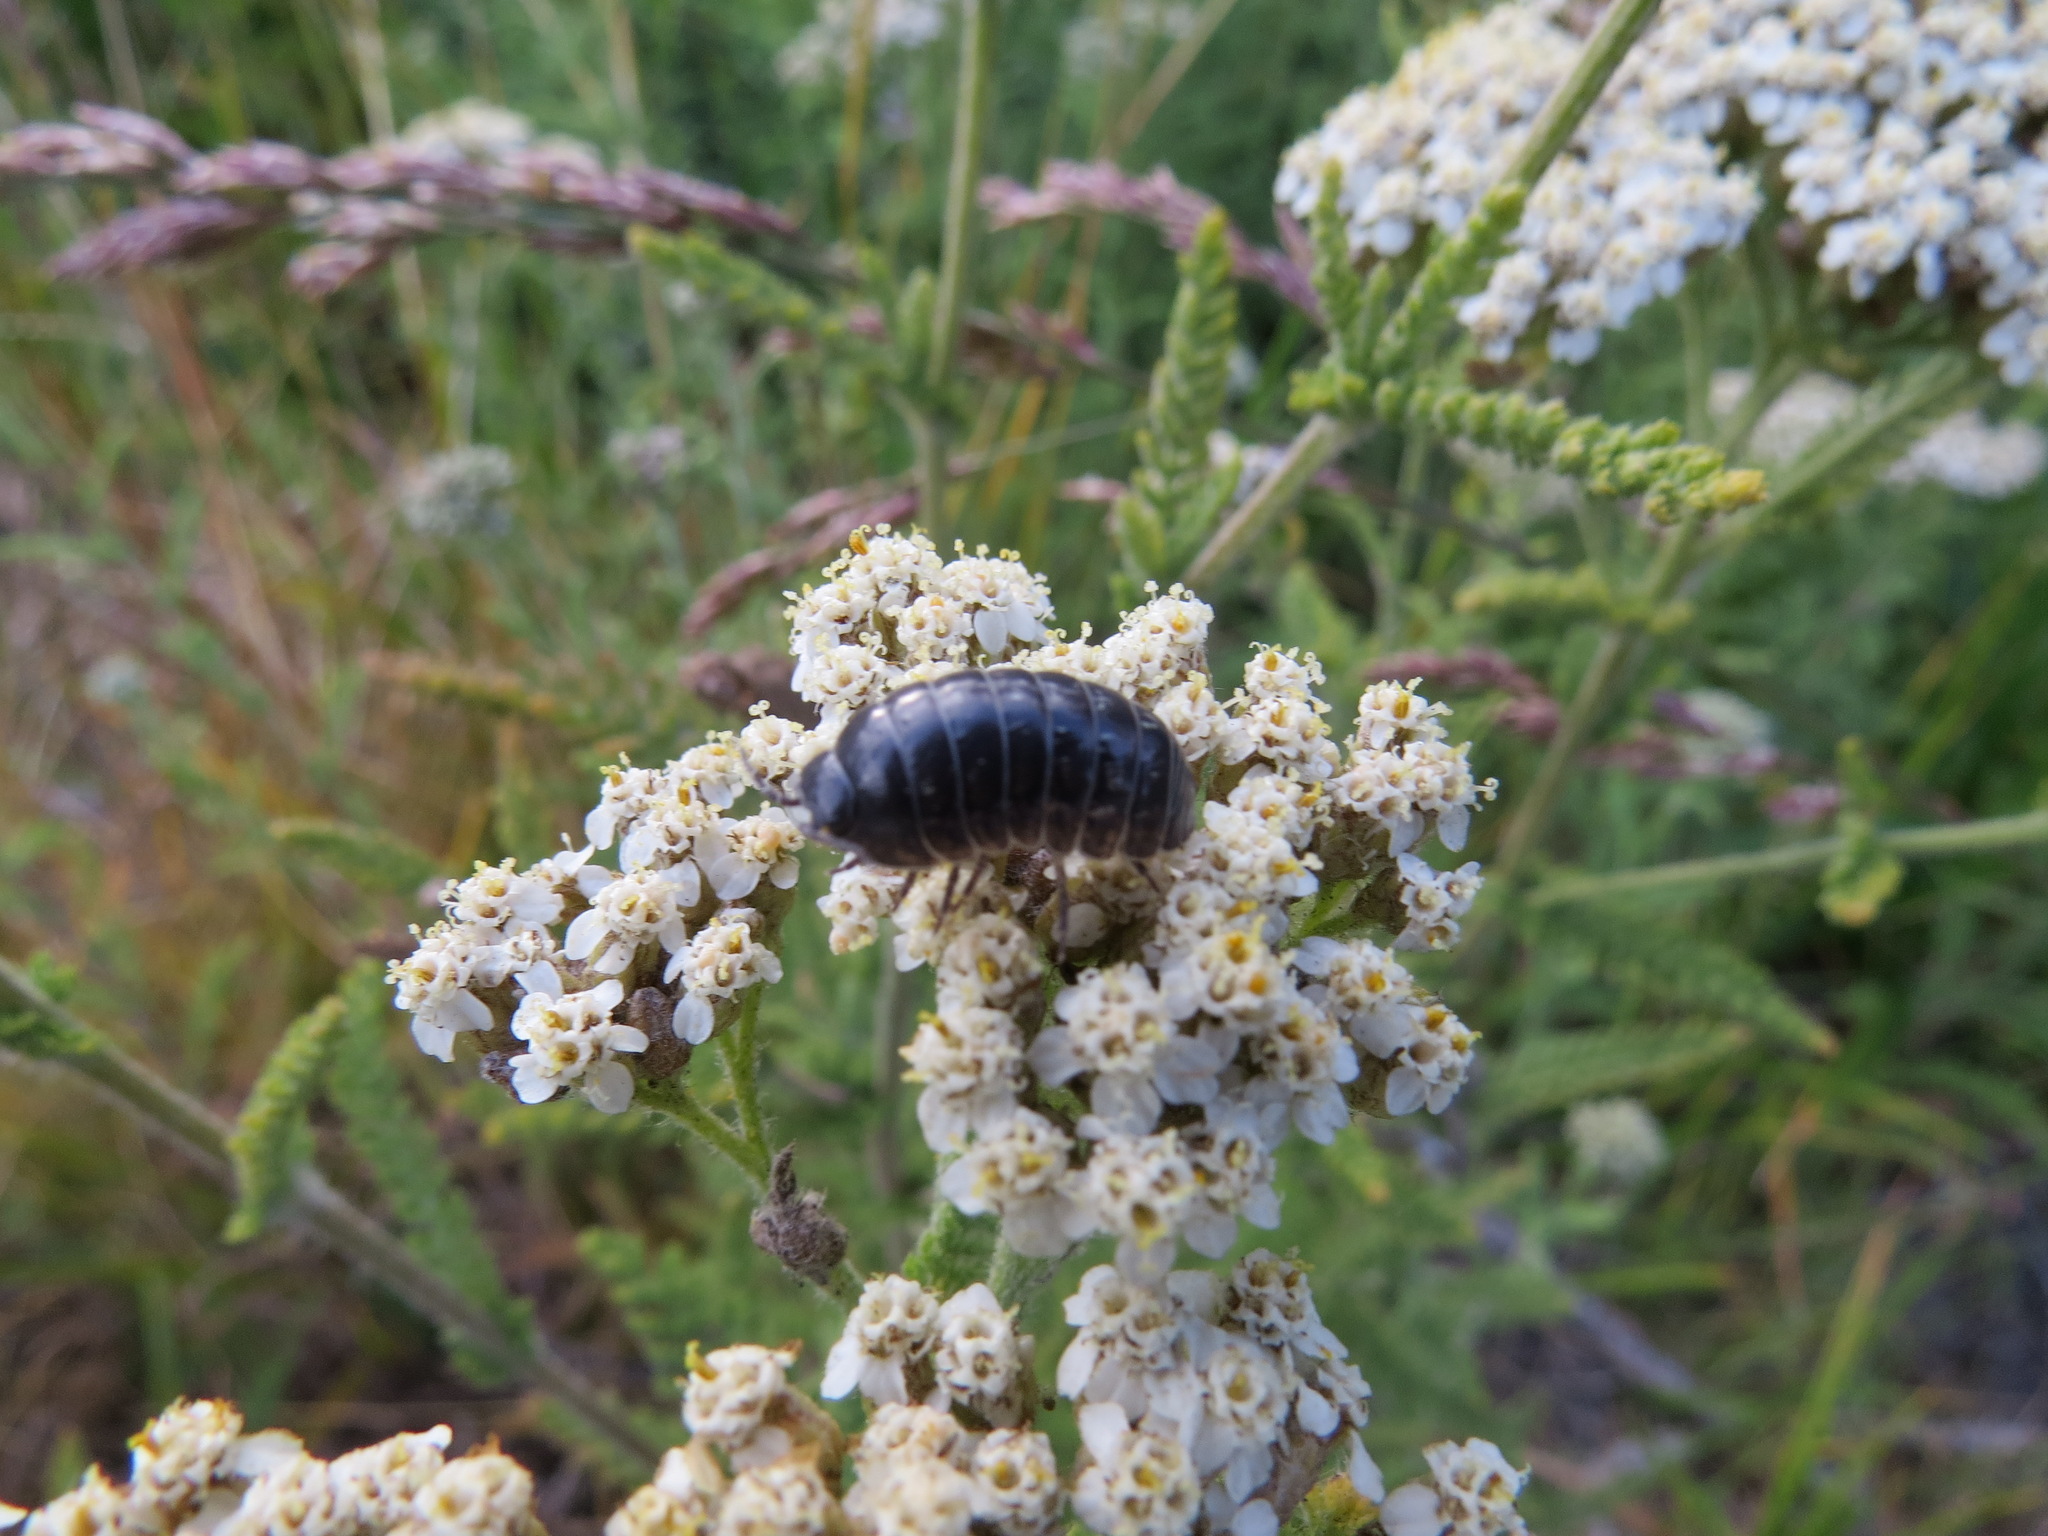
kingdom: Animalia
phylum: Arthropoda
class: Malacostraca
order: Isopoda
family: Armadillidiidae
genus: Armadillidium
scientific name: Armadillidium vulgare
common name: Common pill woodlouse
